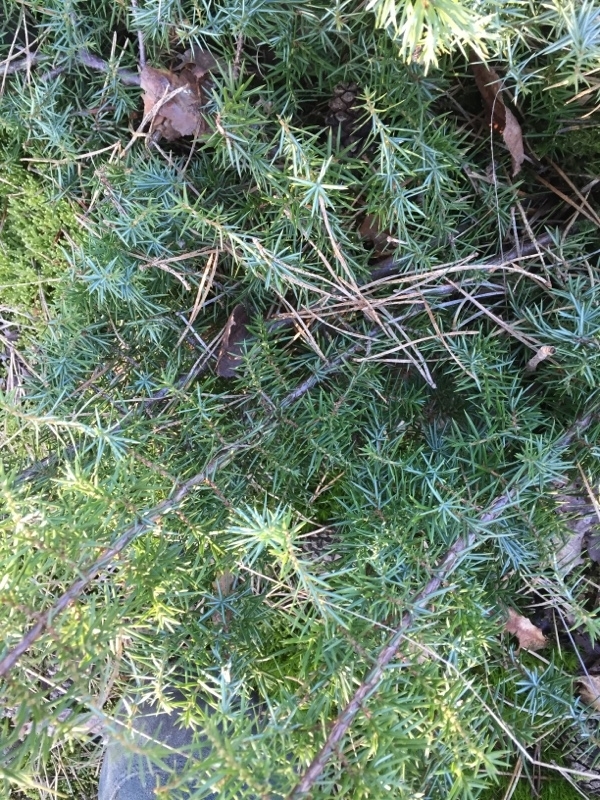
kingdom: Plantae
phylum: Tracheophyta
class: Pinopsida
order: Pinales
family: Cupressaceae
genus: Juniperus
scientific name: Juniperus communis
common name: Common juniper
